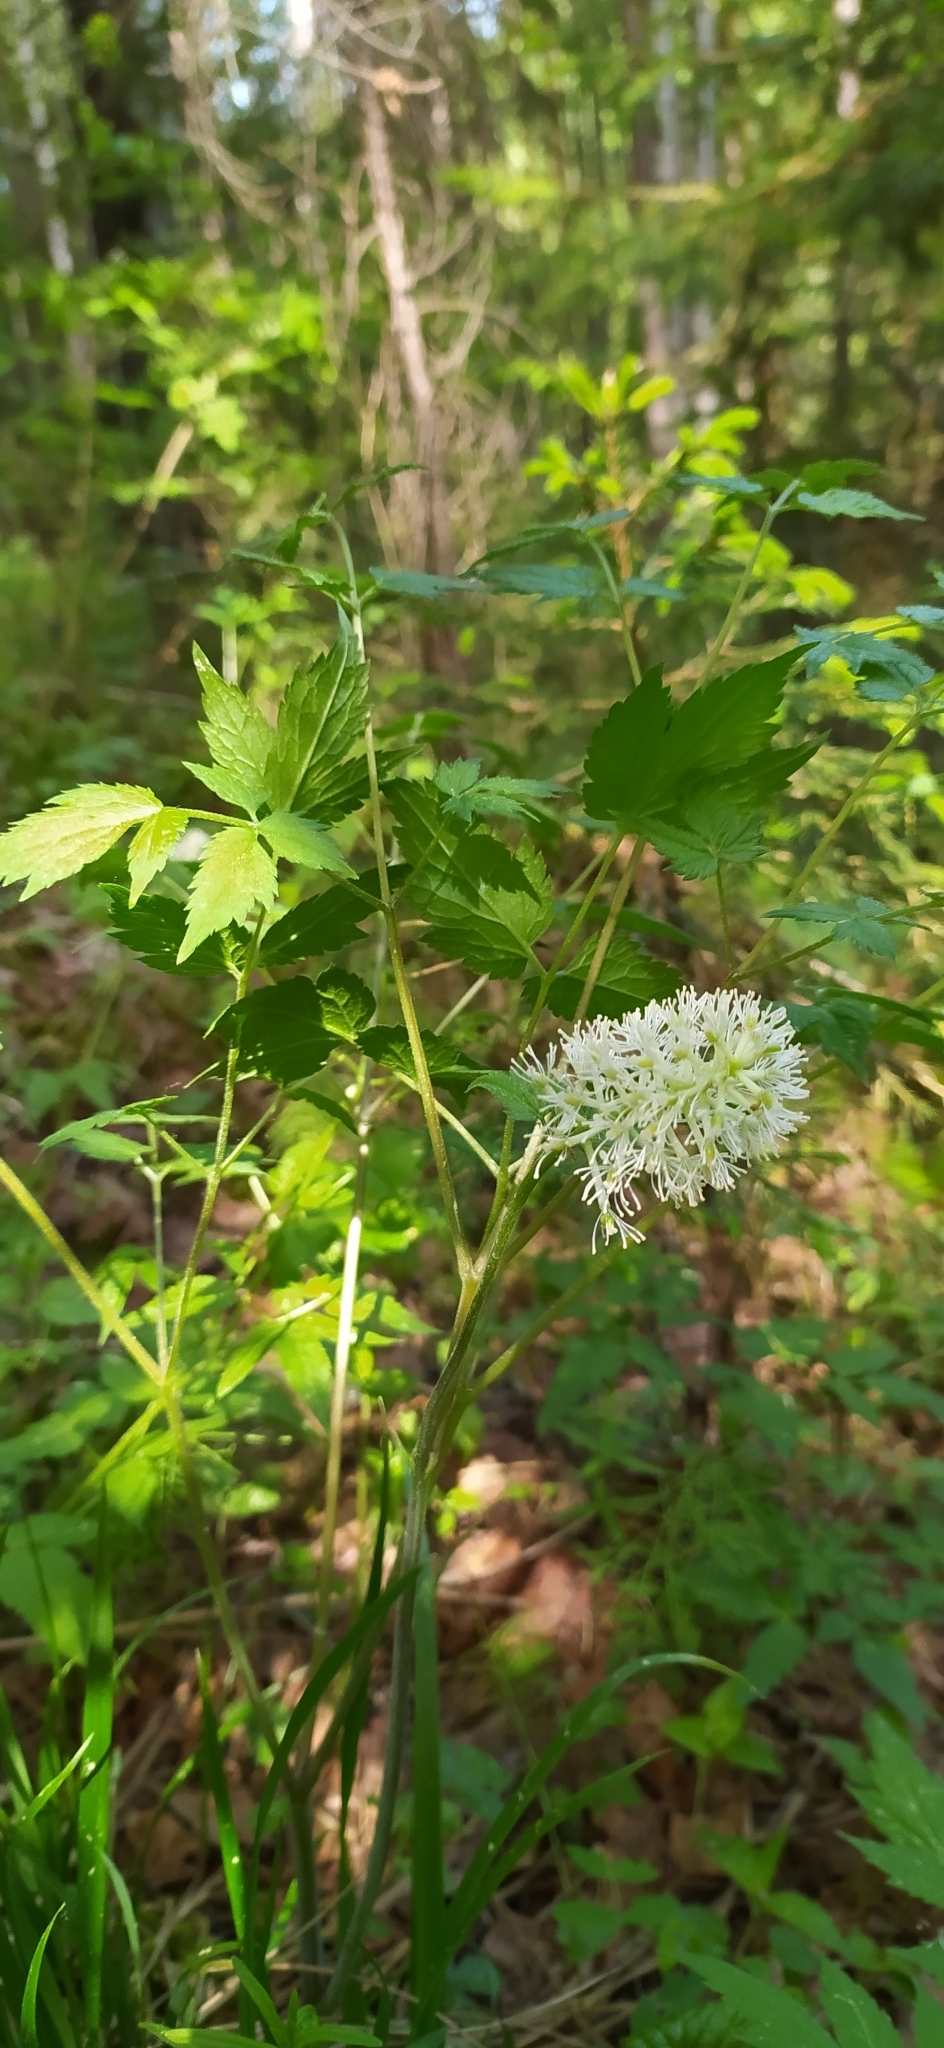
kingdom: Plantae
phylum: Tracheophyta
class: Magnoliopsida
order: Ranunculales
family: Ranunculaceae
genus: Actaea
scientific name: Actaea spicata
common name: Baneberry
